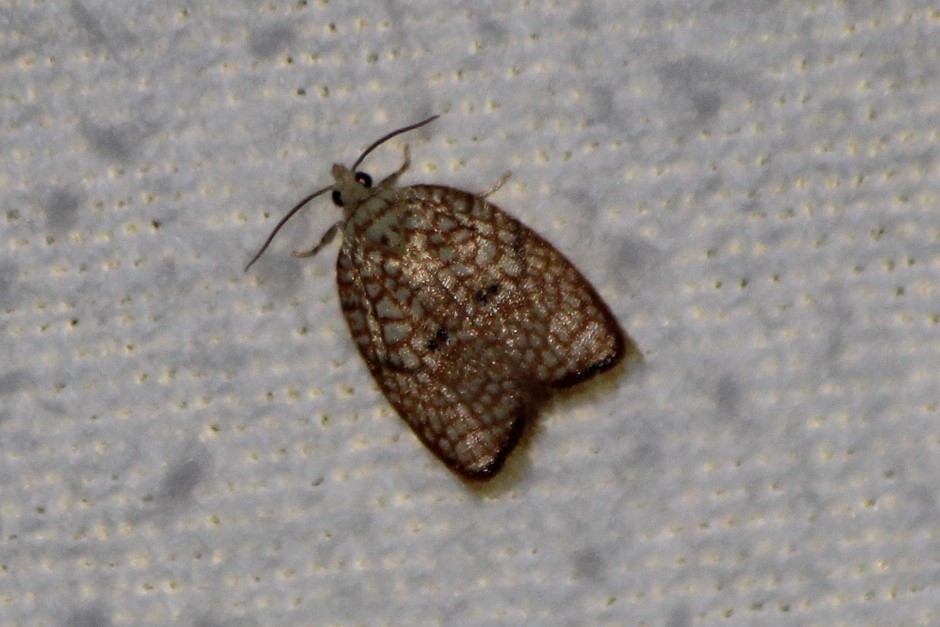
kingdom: Animalia
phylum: Arthropoda
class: Insecta
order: Lepidoptera
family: Tortricidae
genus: Acleris
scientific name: Acleris forsskaleana
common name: Maple button
